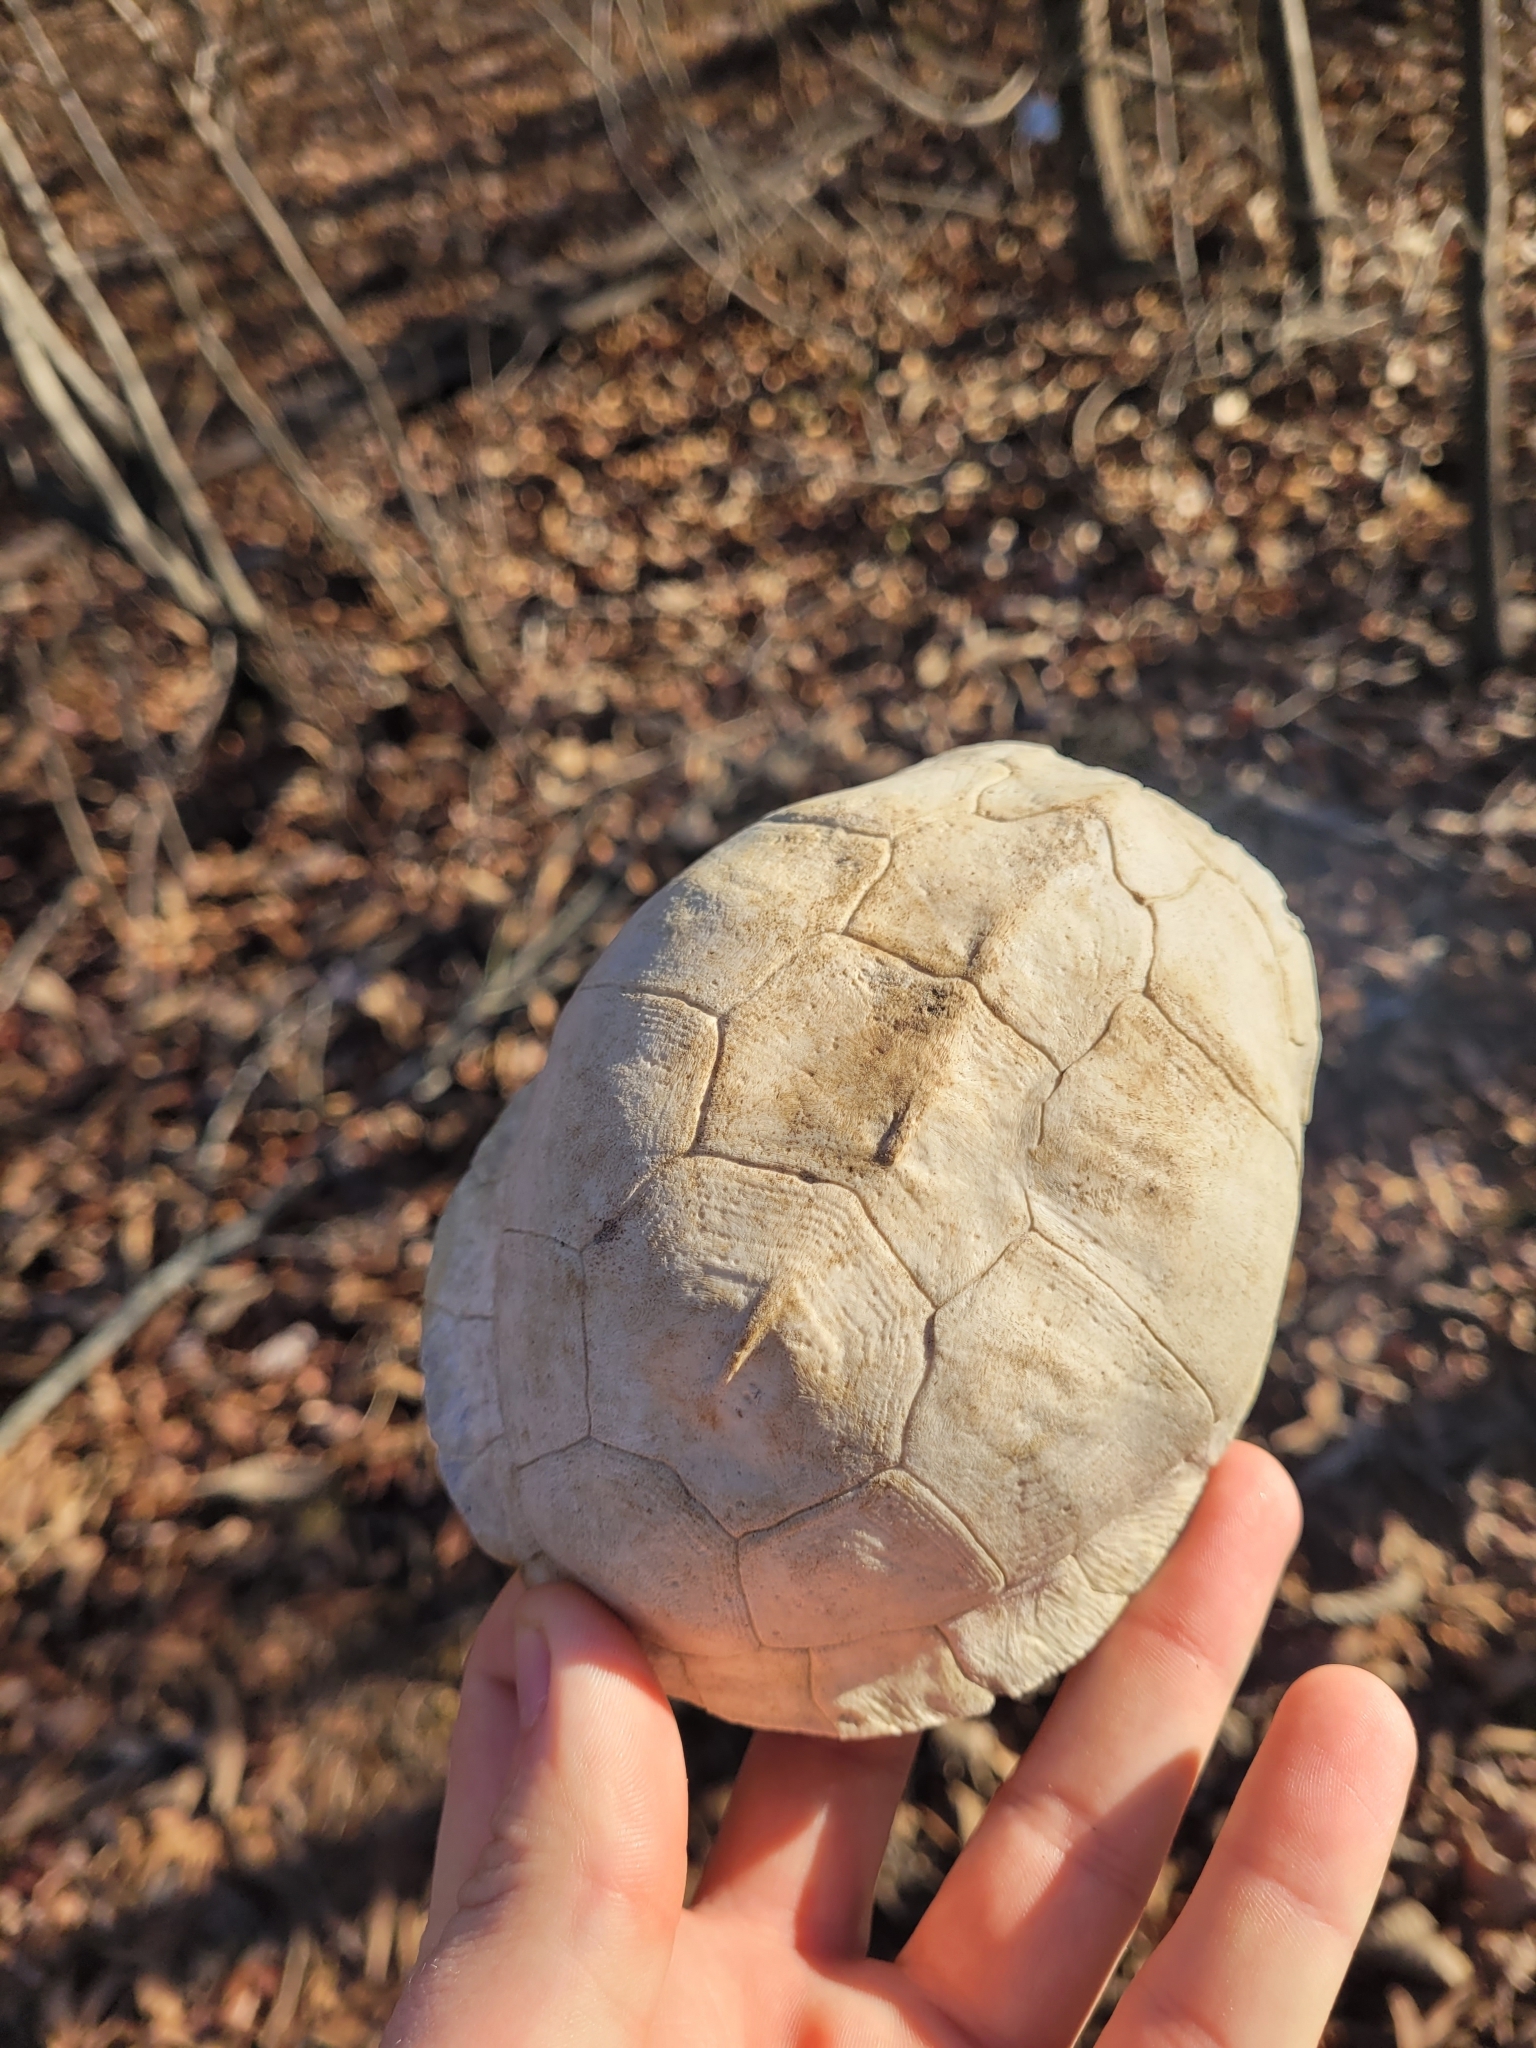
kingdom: Animalia
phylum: Chordata
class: Testudines
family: Emydidae
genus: Terrapene
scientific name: Terrapene carolina
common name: Common box turtle
